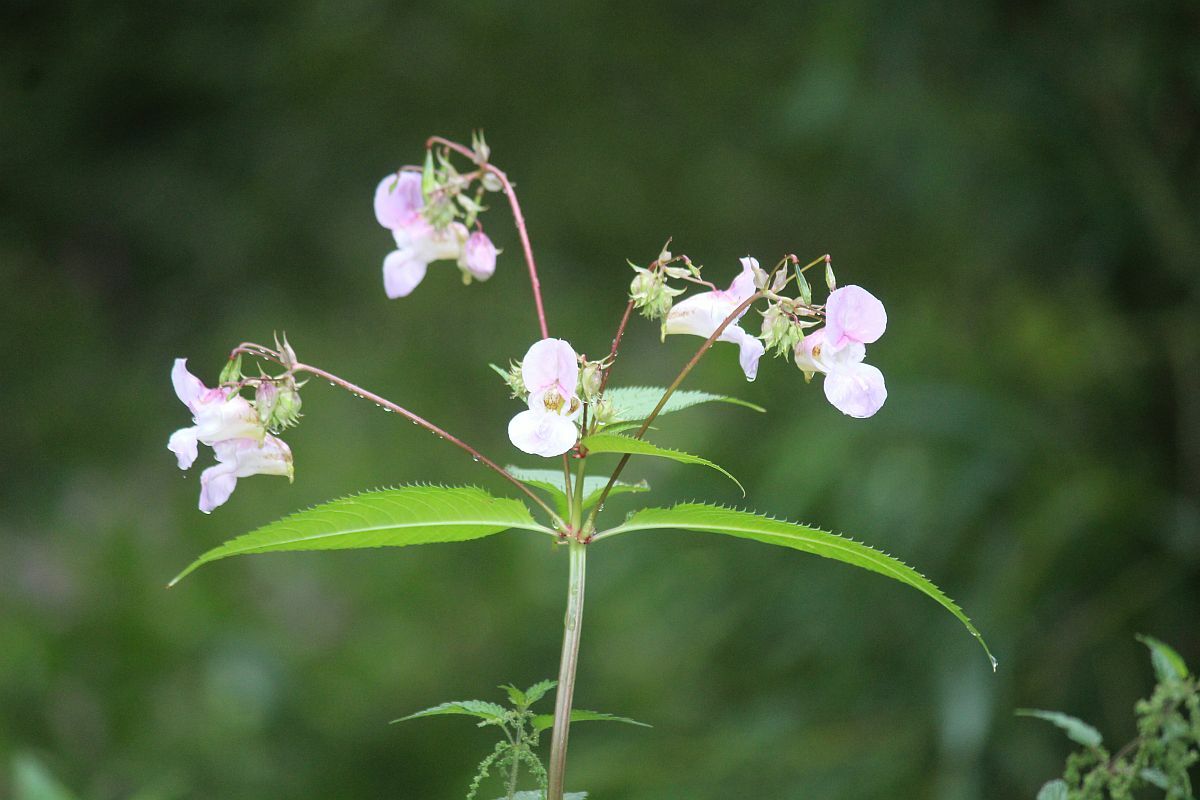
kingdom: Plantae
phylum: Tracheophyta
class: Magnoliopsida
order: Ericales
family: Balsaminaceae
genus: Impatiens
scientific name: Impatiens glandulifera
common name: Himalayan balsam
